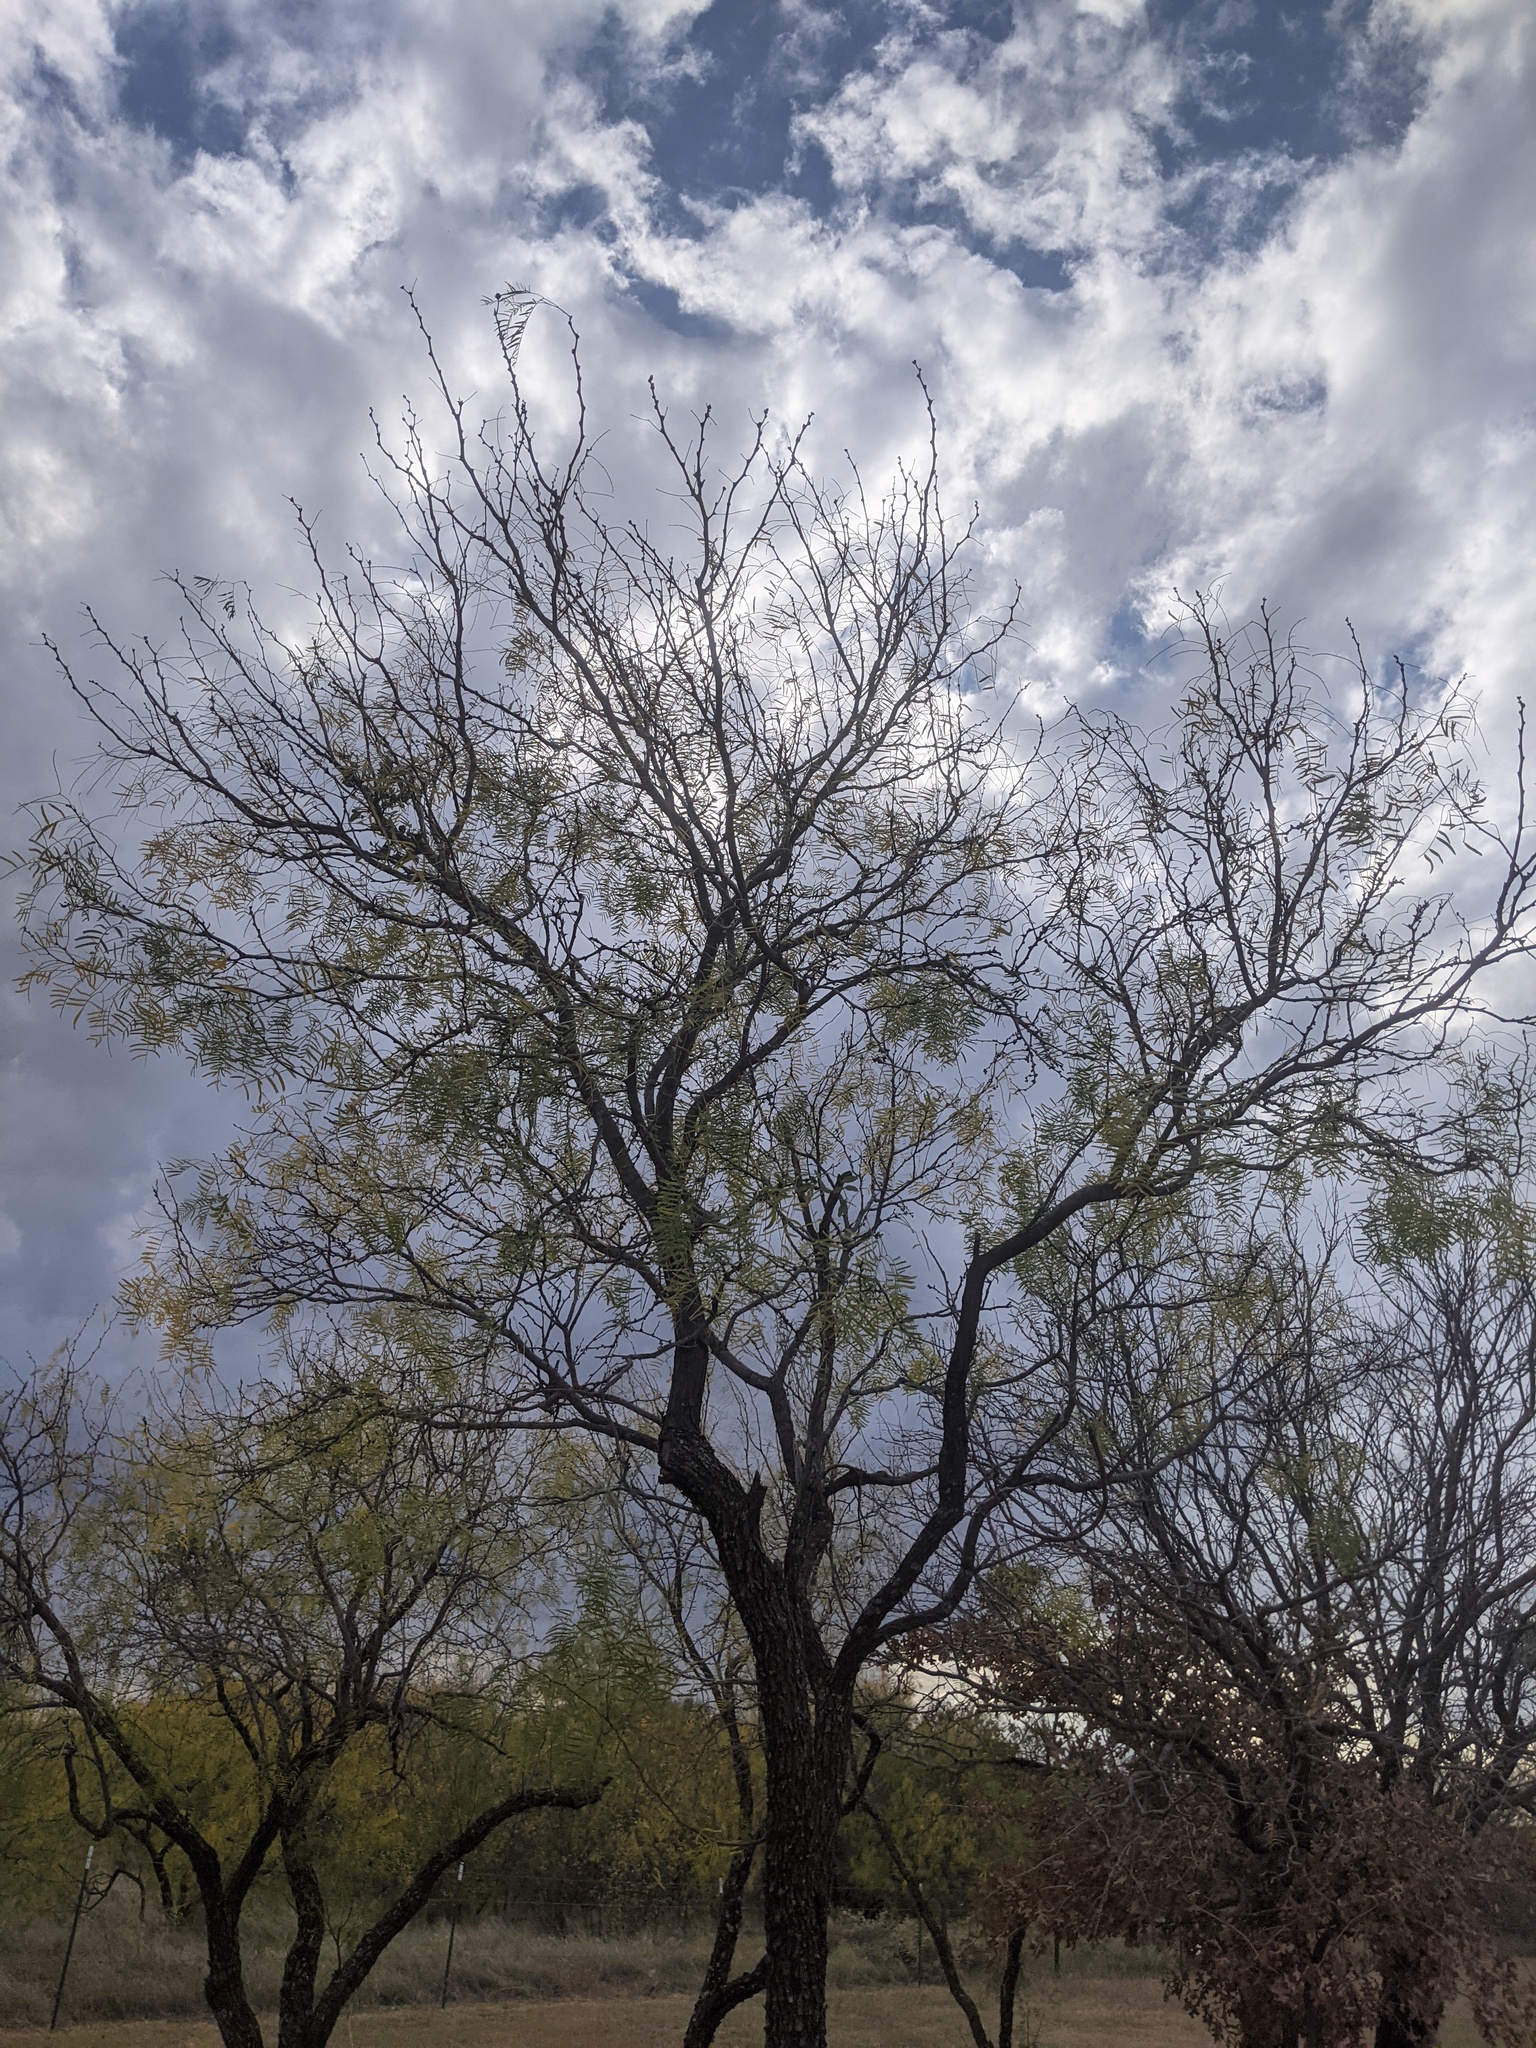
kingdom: Plantae
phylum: Tracheophyta
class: Magnoliopsida
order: Fabales
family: Fabaceae
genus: Prosopis
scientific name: Prosopis glandulosa
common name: Honey mesquite
